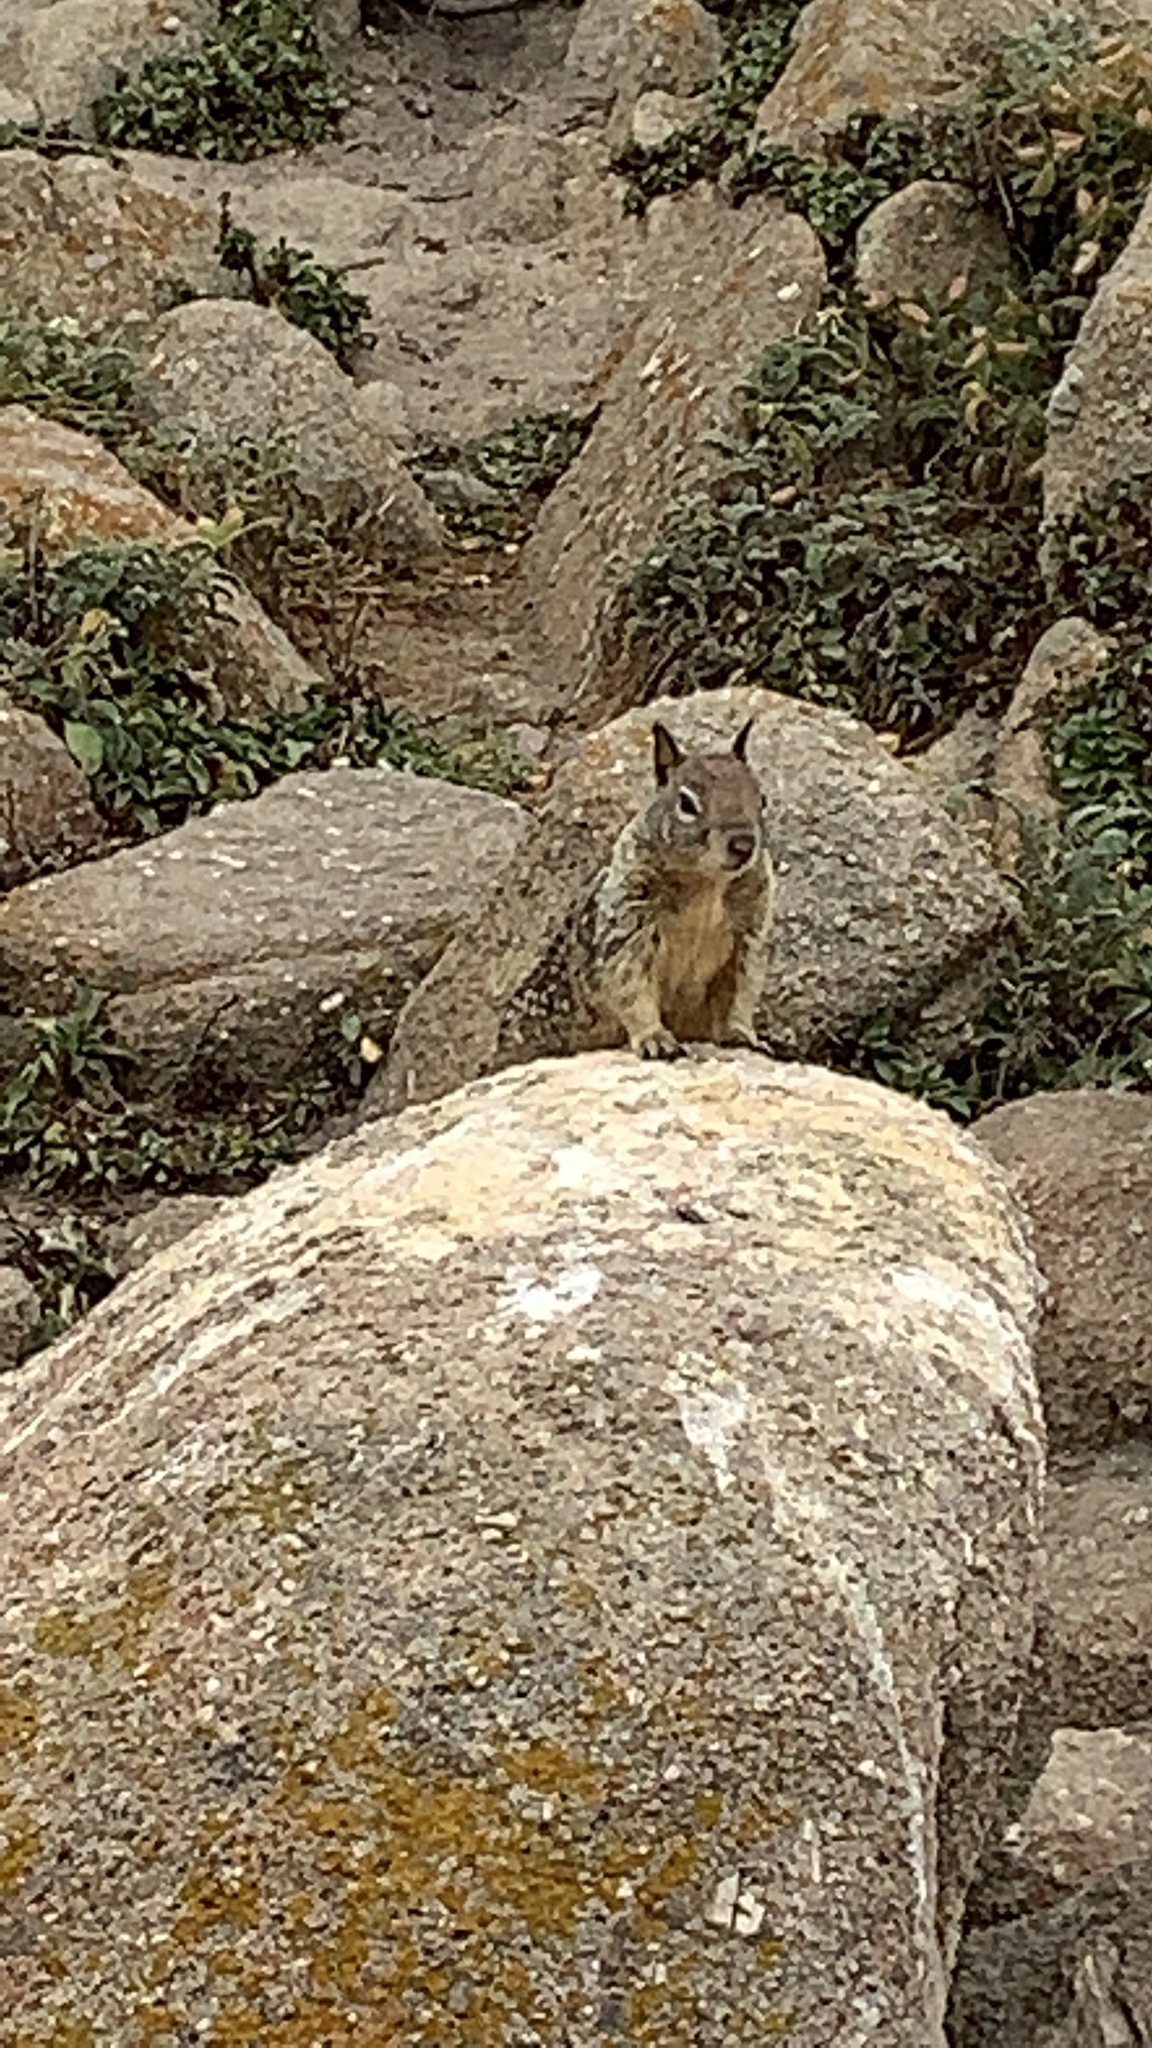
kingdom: Animalia
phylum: Chordata
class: Mammalia
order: Rodentia
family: Sciuridae
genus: Otospermophilus
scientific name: Otospermophilus beecheyi
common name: California ground squirrel
